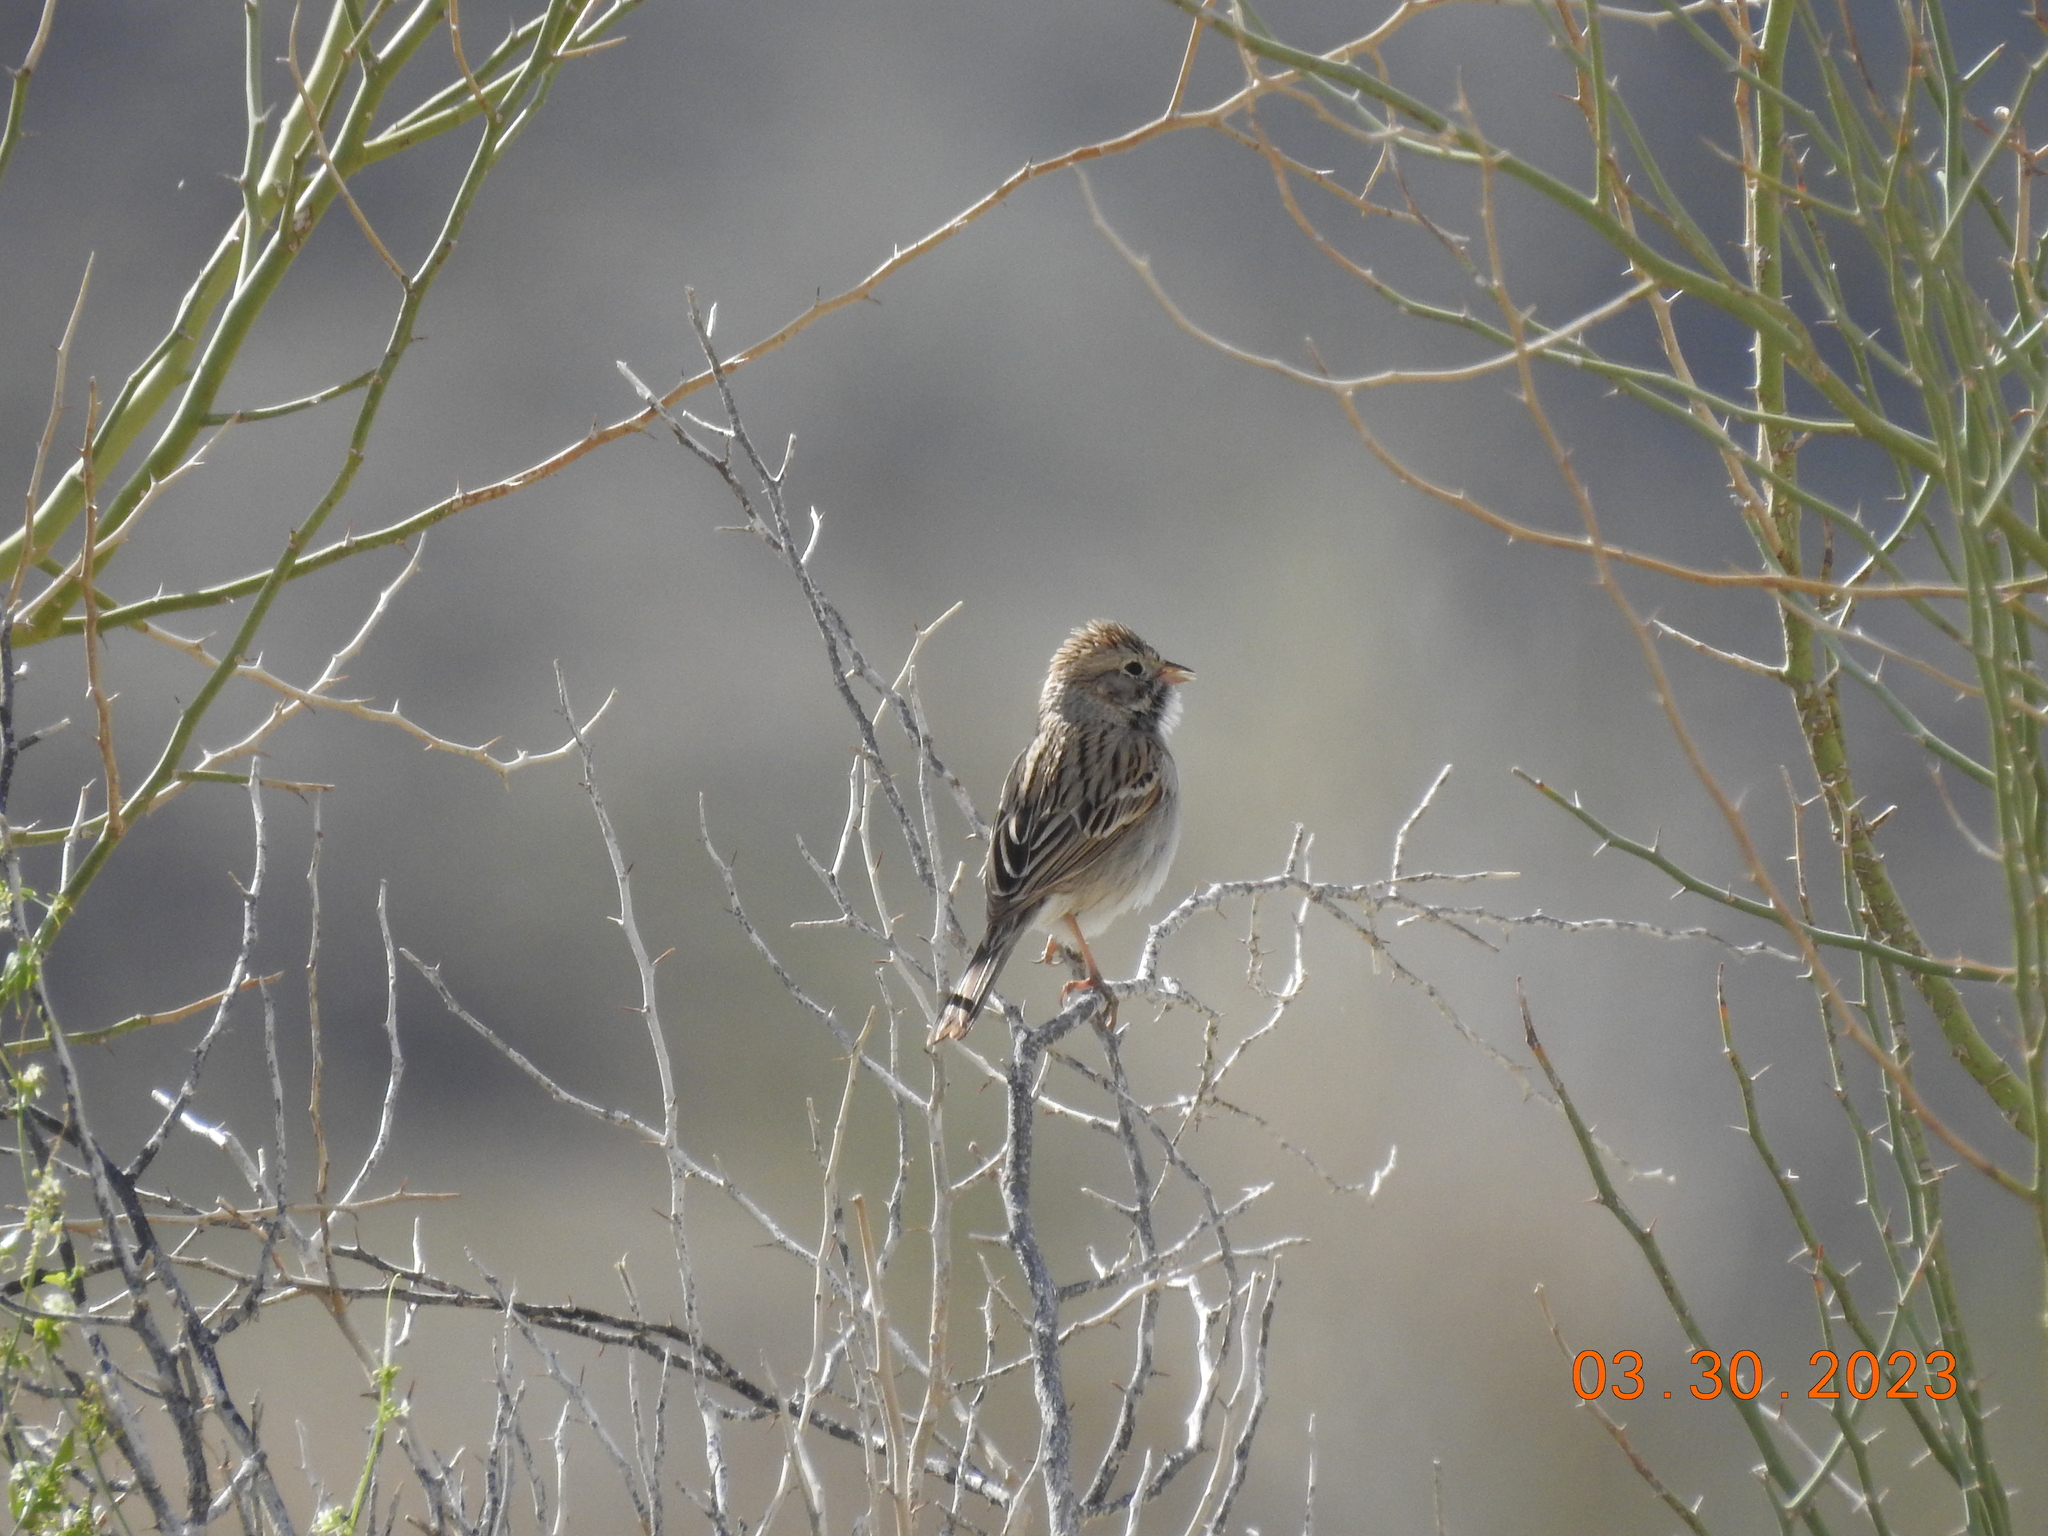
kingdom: Animalia
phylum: Chordata
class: Aves
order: Passeriformes
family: Passerellidae
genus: Spizella
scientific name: Spizella breweri
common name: Brewer's sparrow
